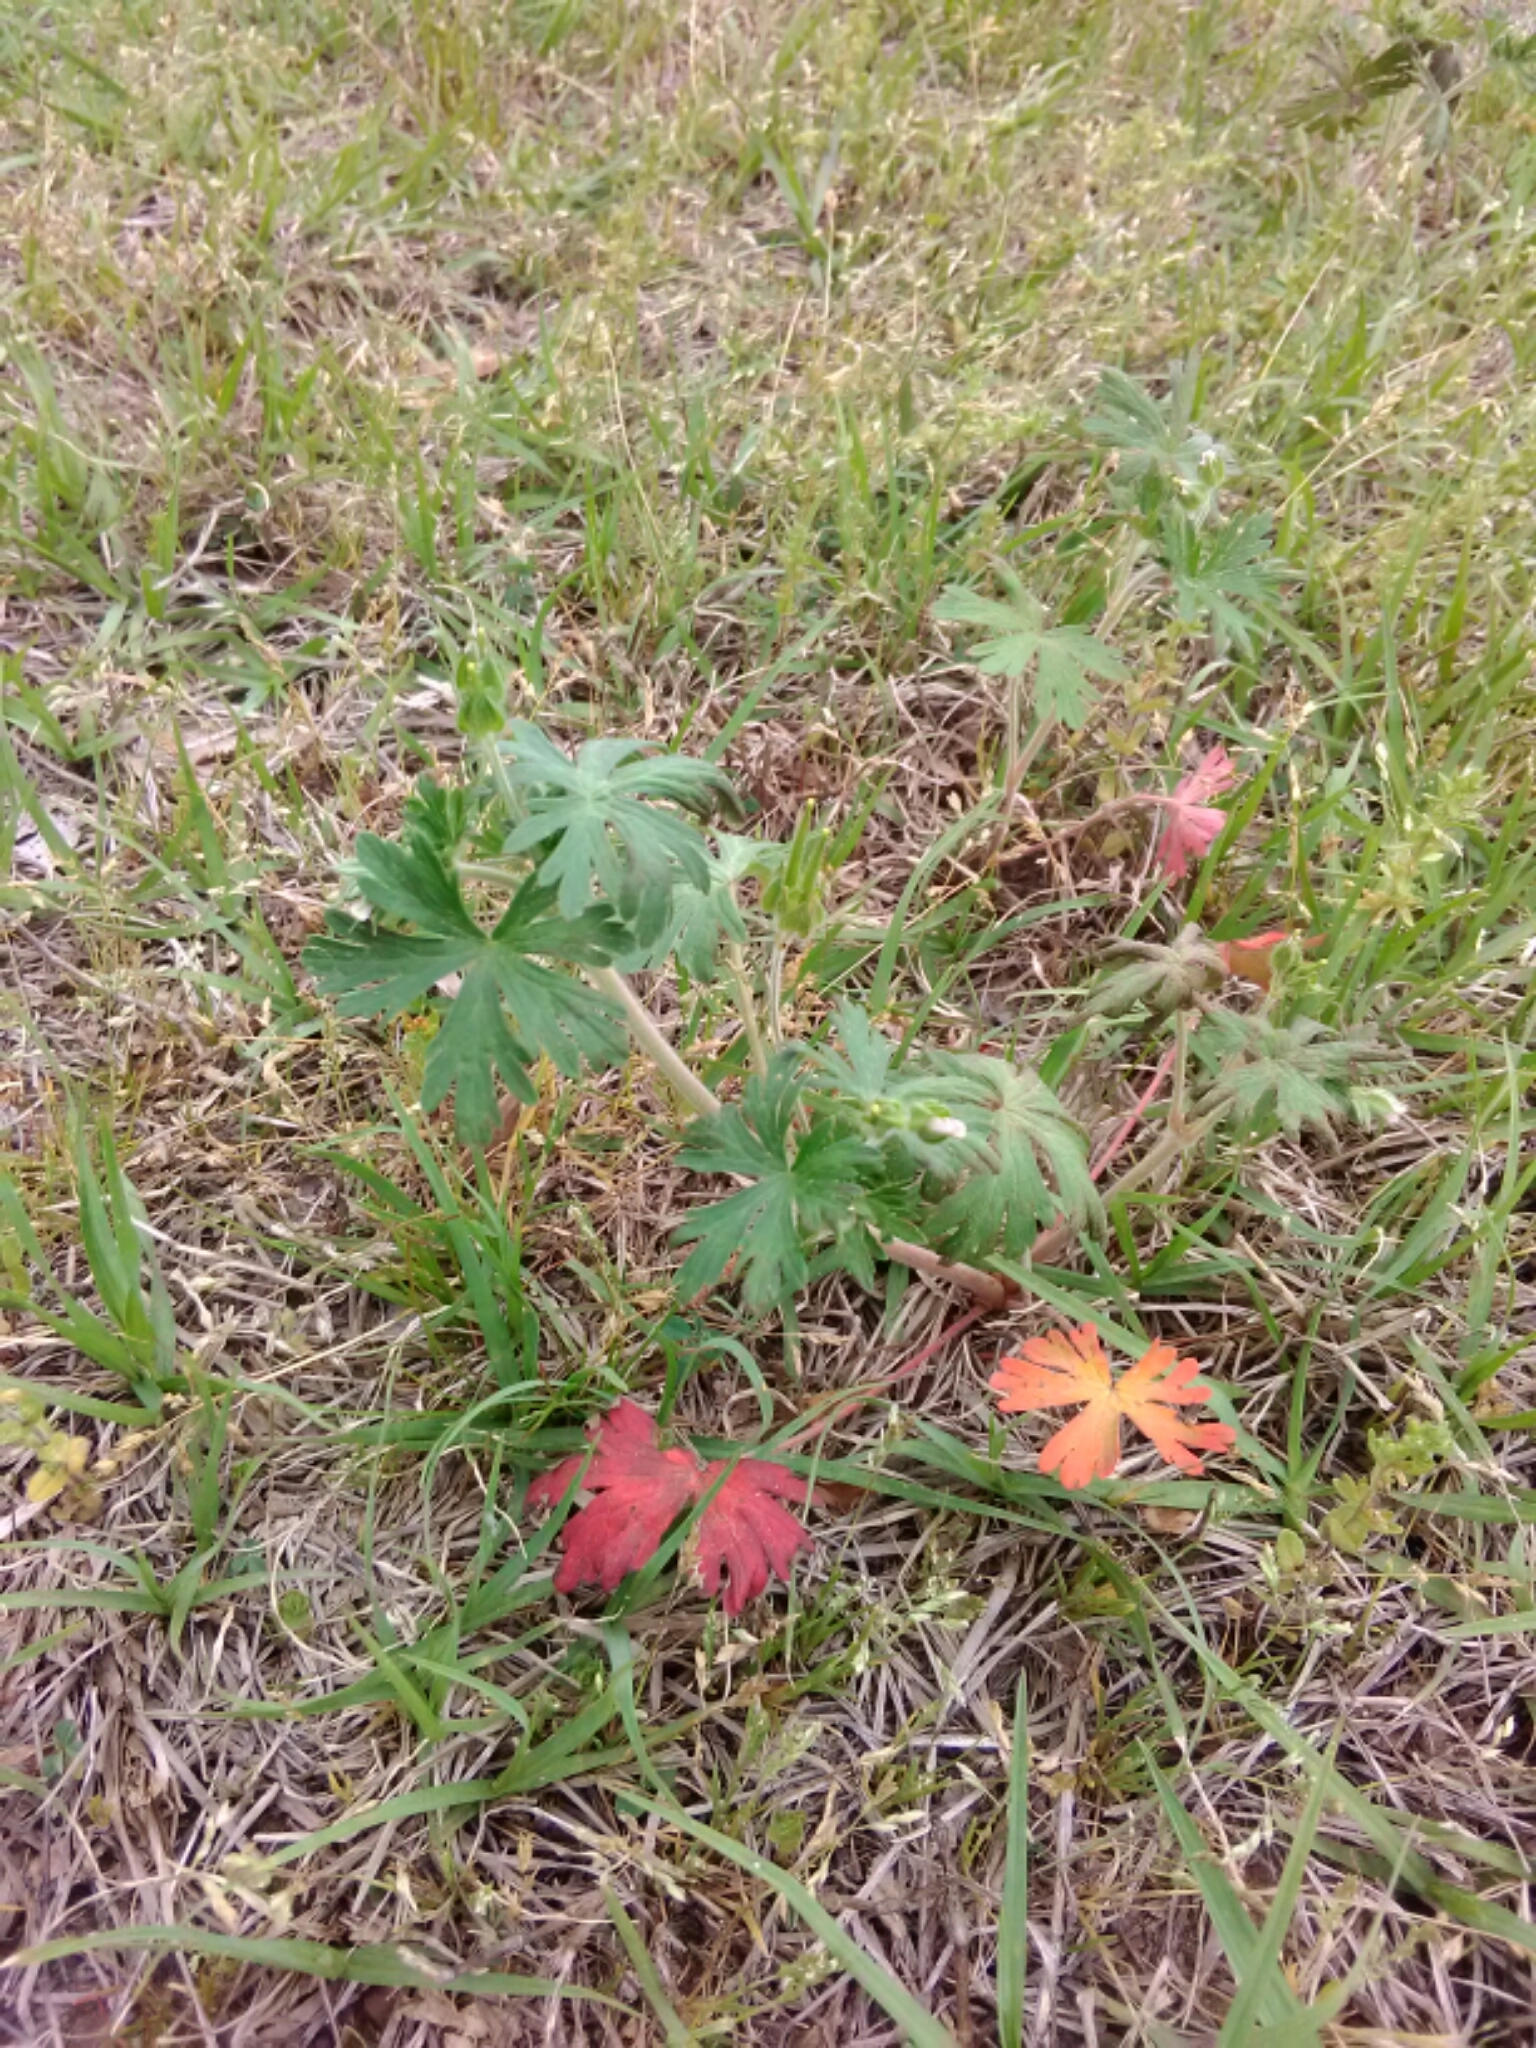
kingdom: Plantae
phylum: Tracheophyta
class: Magnoliopsida
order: Geraniales
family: Geraniaceae
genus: Geranium
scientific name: Geranium carolinianum
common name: Carolina crane's-bill
